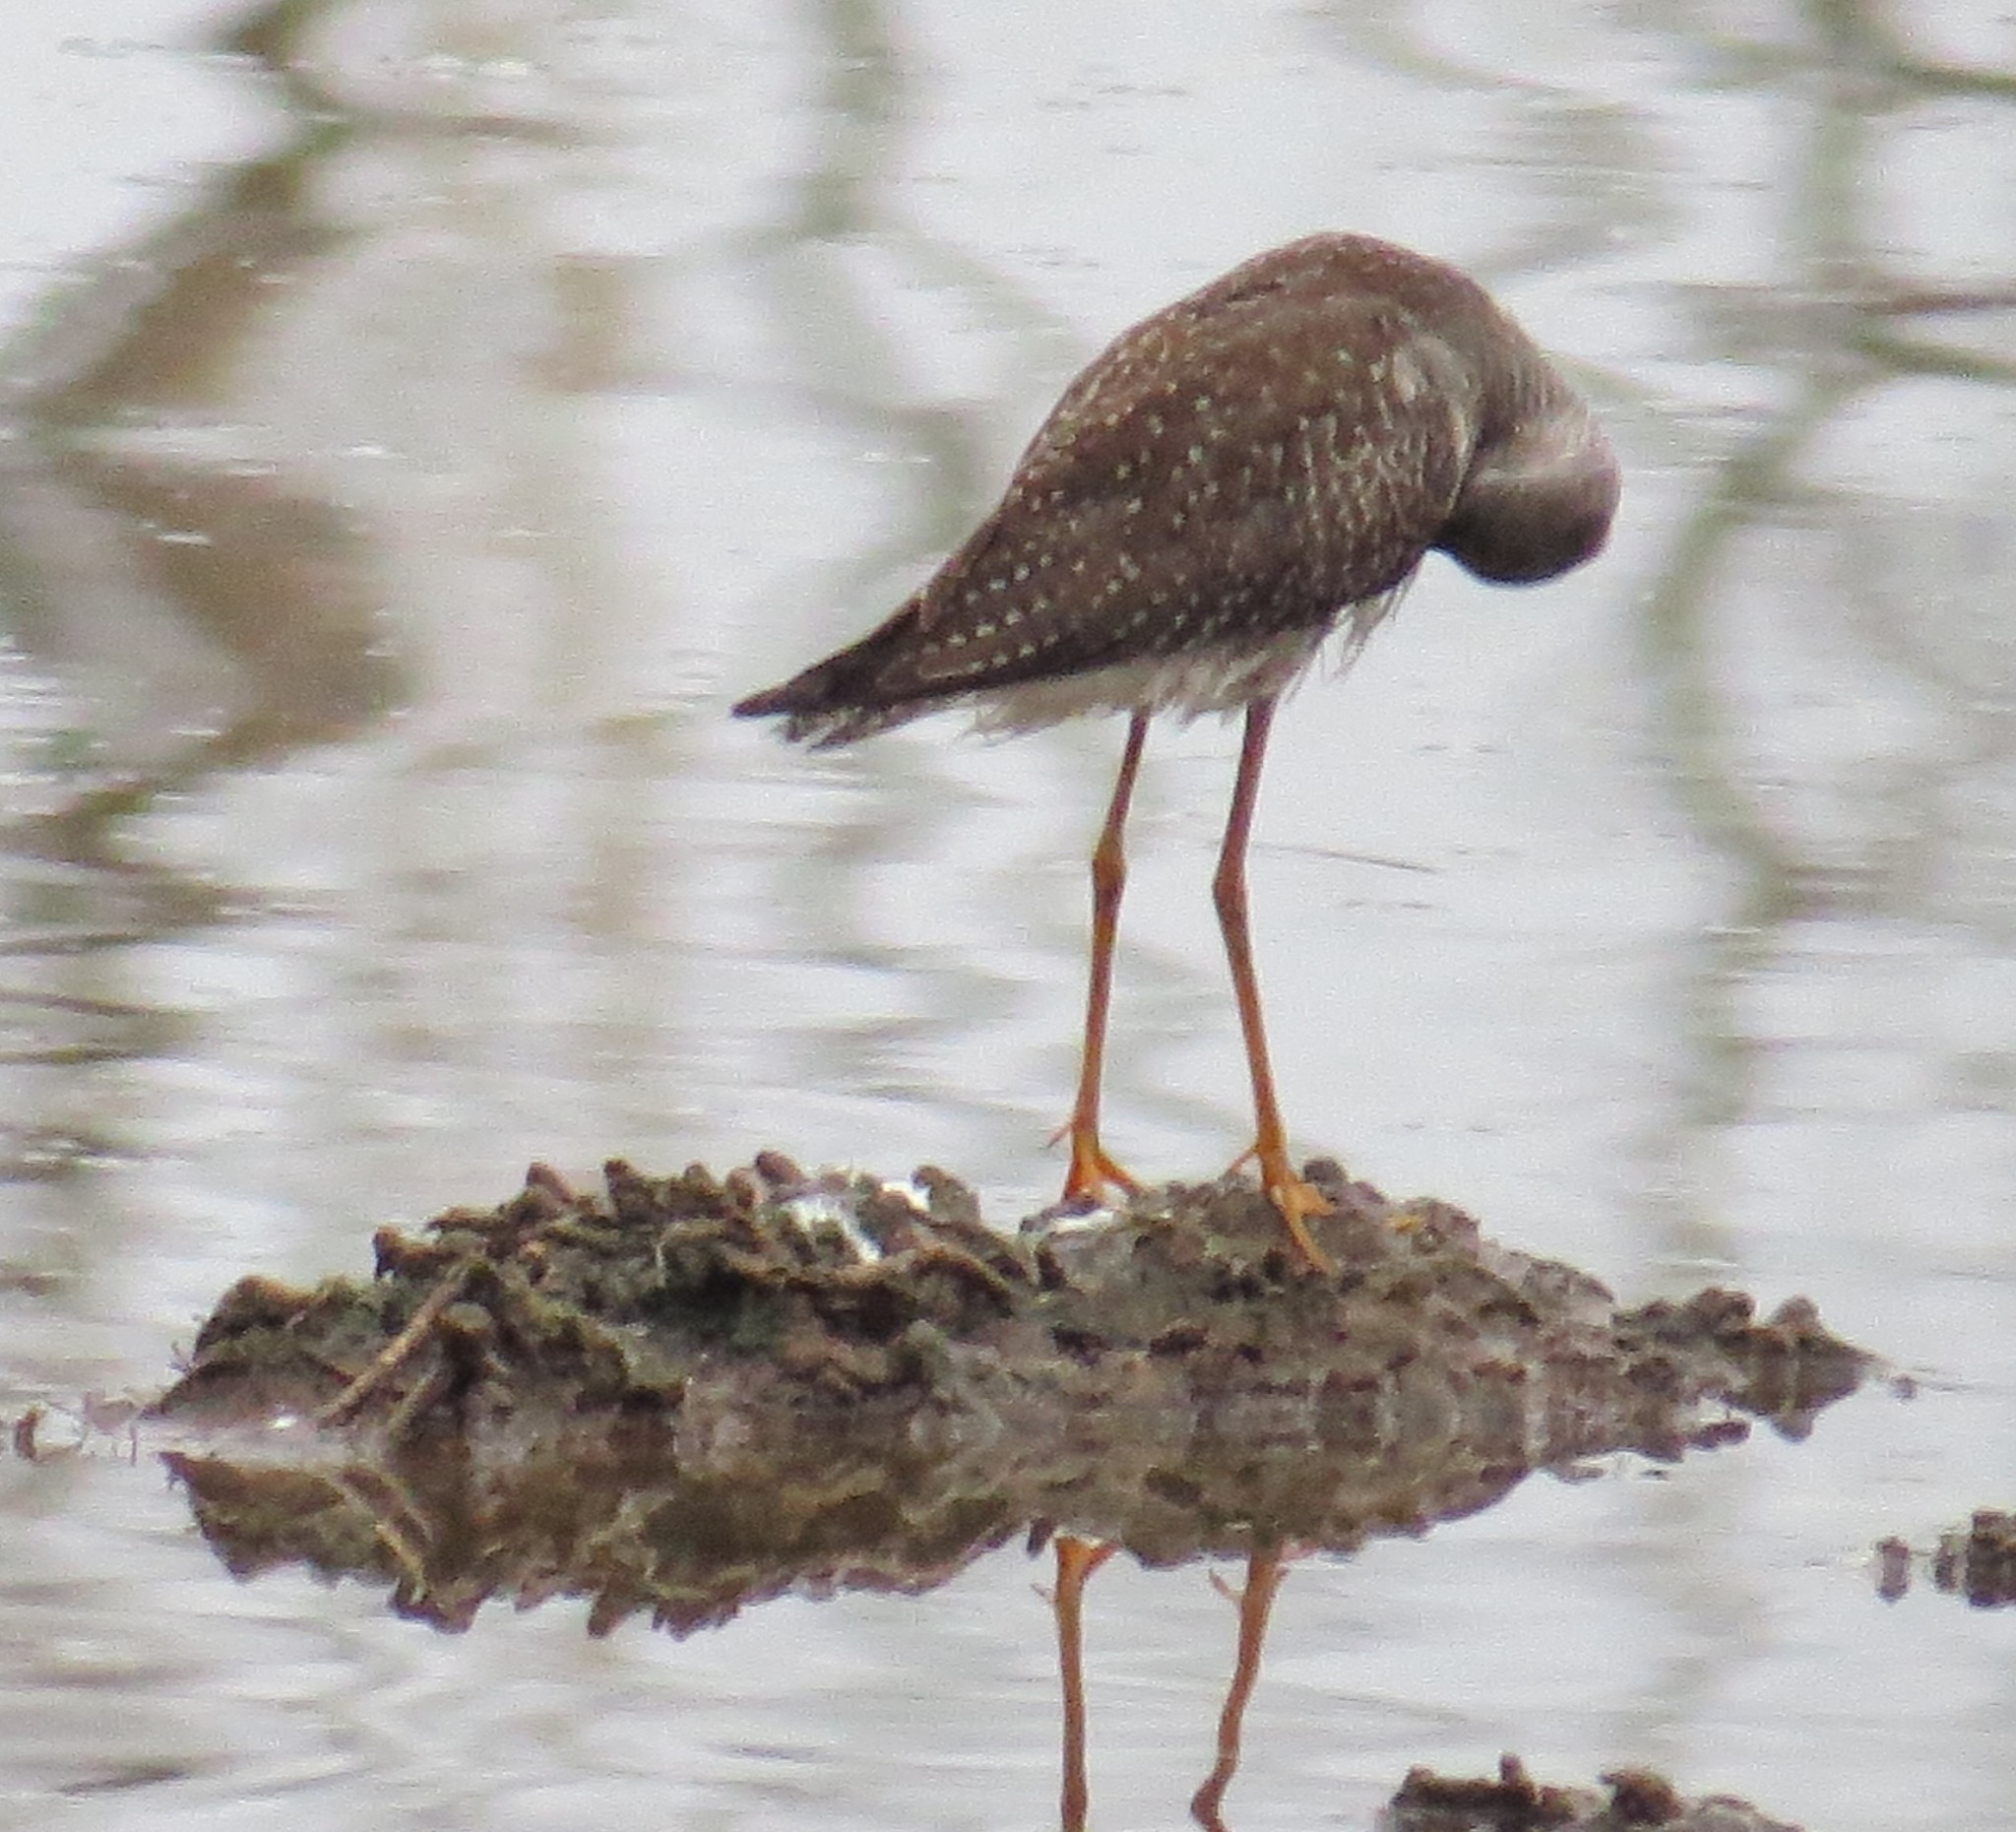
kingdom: Animalia
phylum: Chordata
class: Aves
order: Charadriiformes
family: Scolopacidae
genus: Tringa
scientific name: Tringa melanoleuca
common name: Greater yellowlegs
